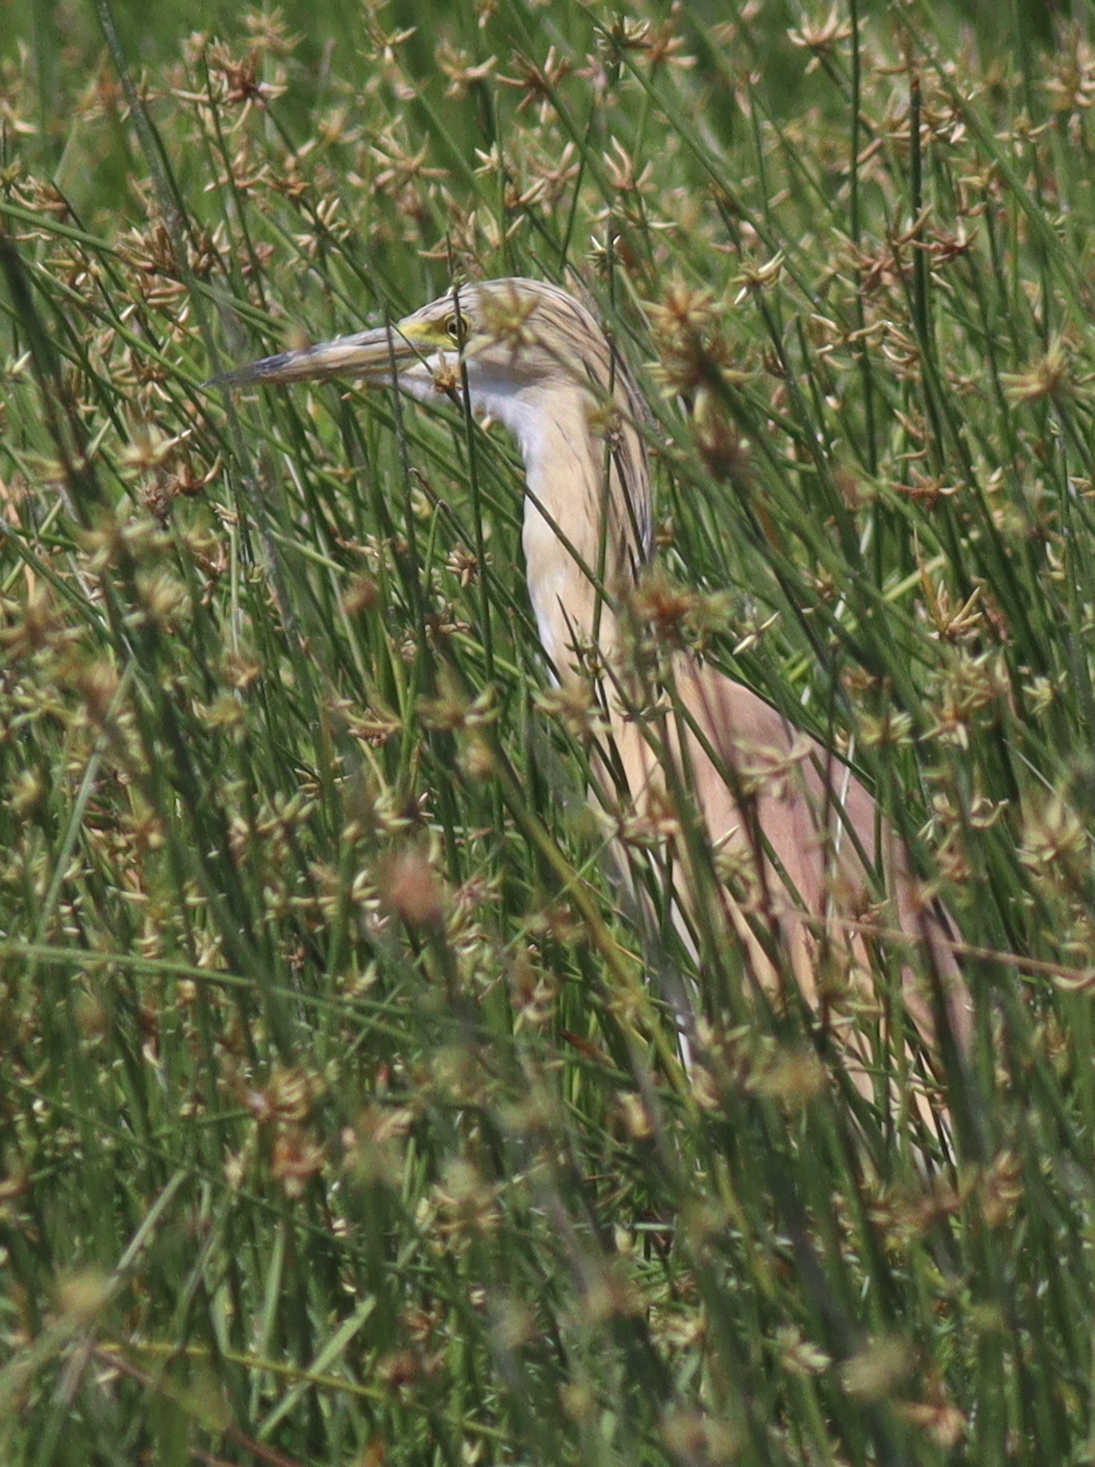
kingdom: Animalia
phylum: Chordata
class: Aves
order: Pelecaniformes
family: Ardeidae
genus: Ardeola
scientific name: Ardeola ralloides
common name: Squacco heron
